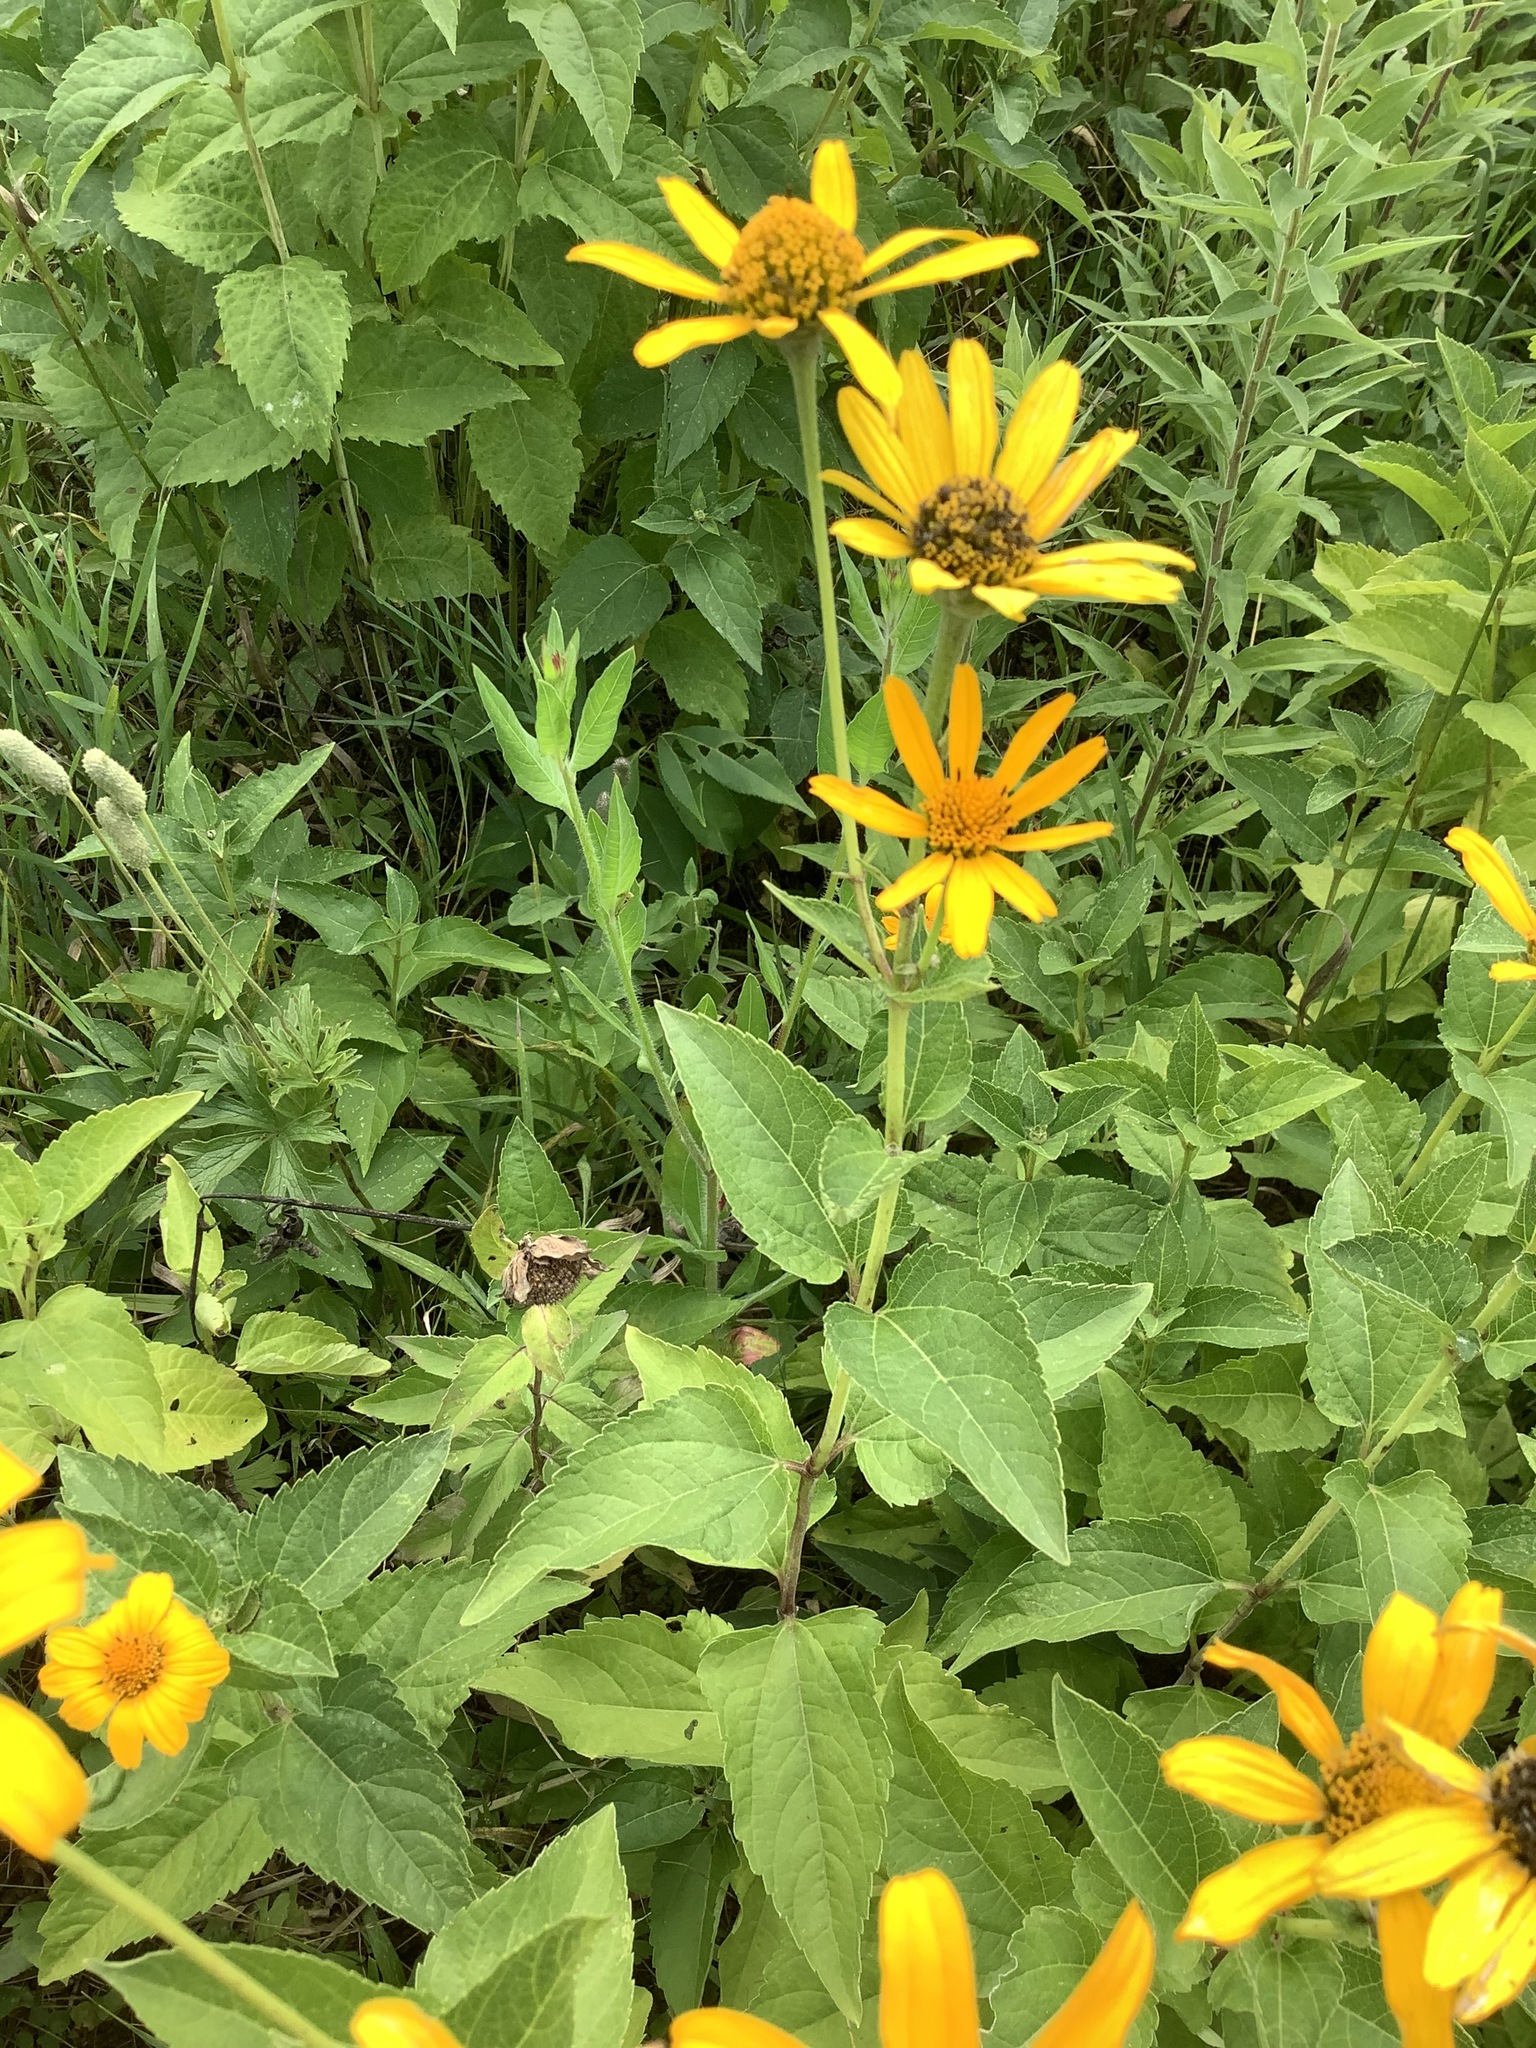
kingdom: Plantae
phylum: Tracheophyta
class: Magnoliopsida
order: Asterales
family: Asteraceae
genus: Heliopsis
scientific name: Heliopsis helianthoides
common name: False sunflower
